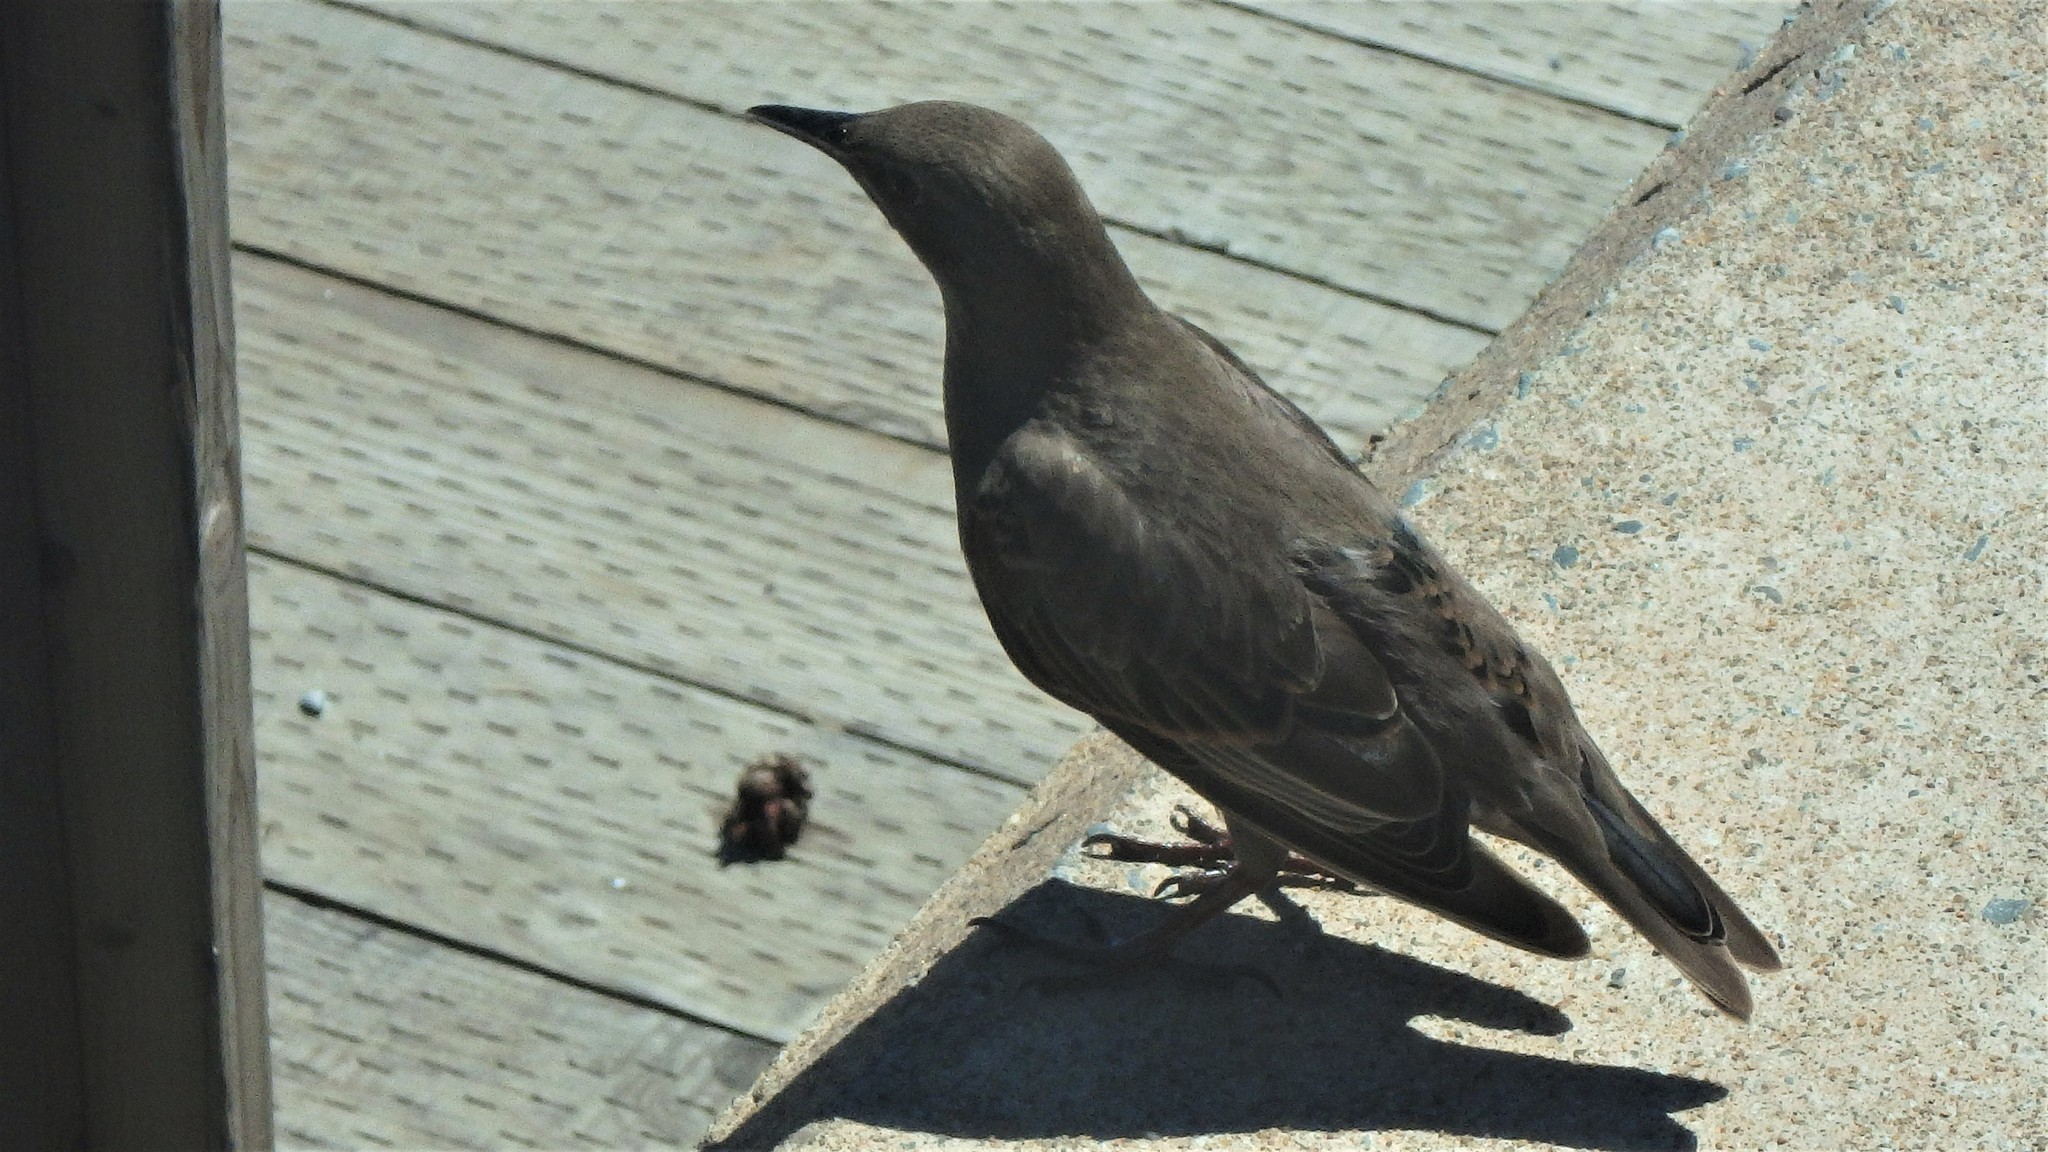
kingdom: Animalia
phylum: Chordata
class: Aves
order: Passeriformes
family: Sturnidae
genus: Sturnus
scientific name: Sturnus vulgaris
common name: Common starling
